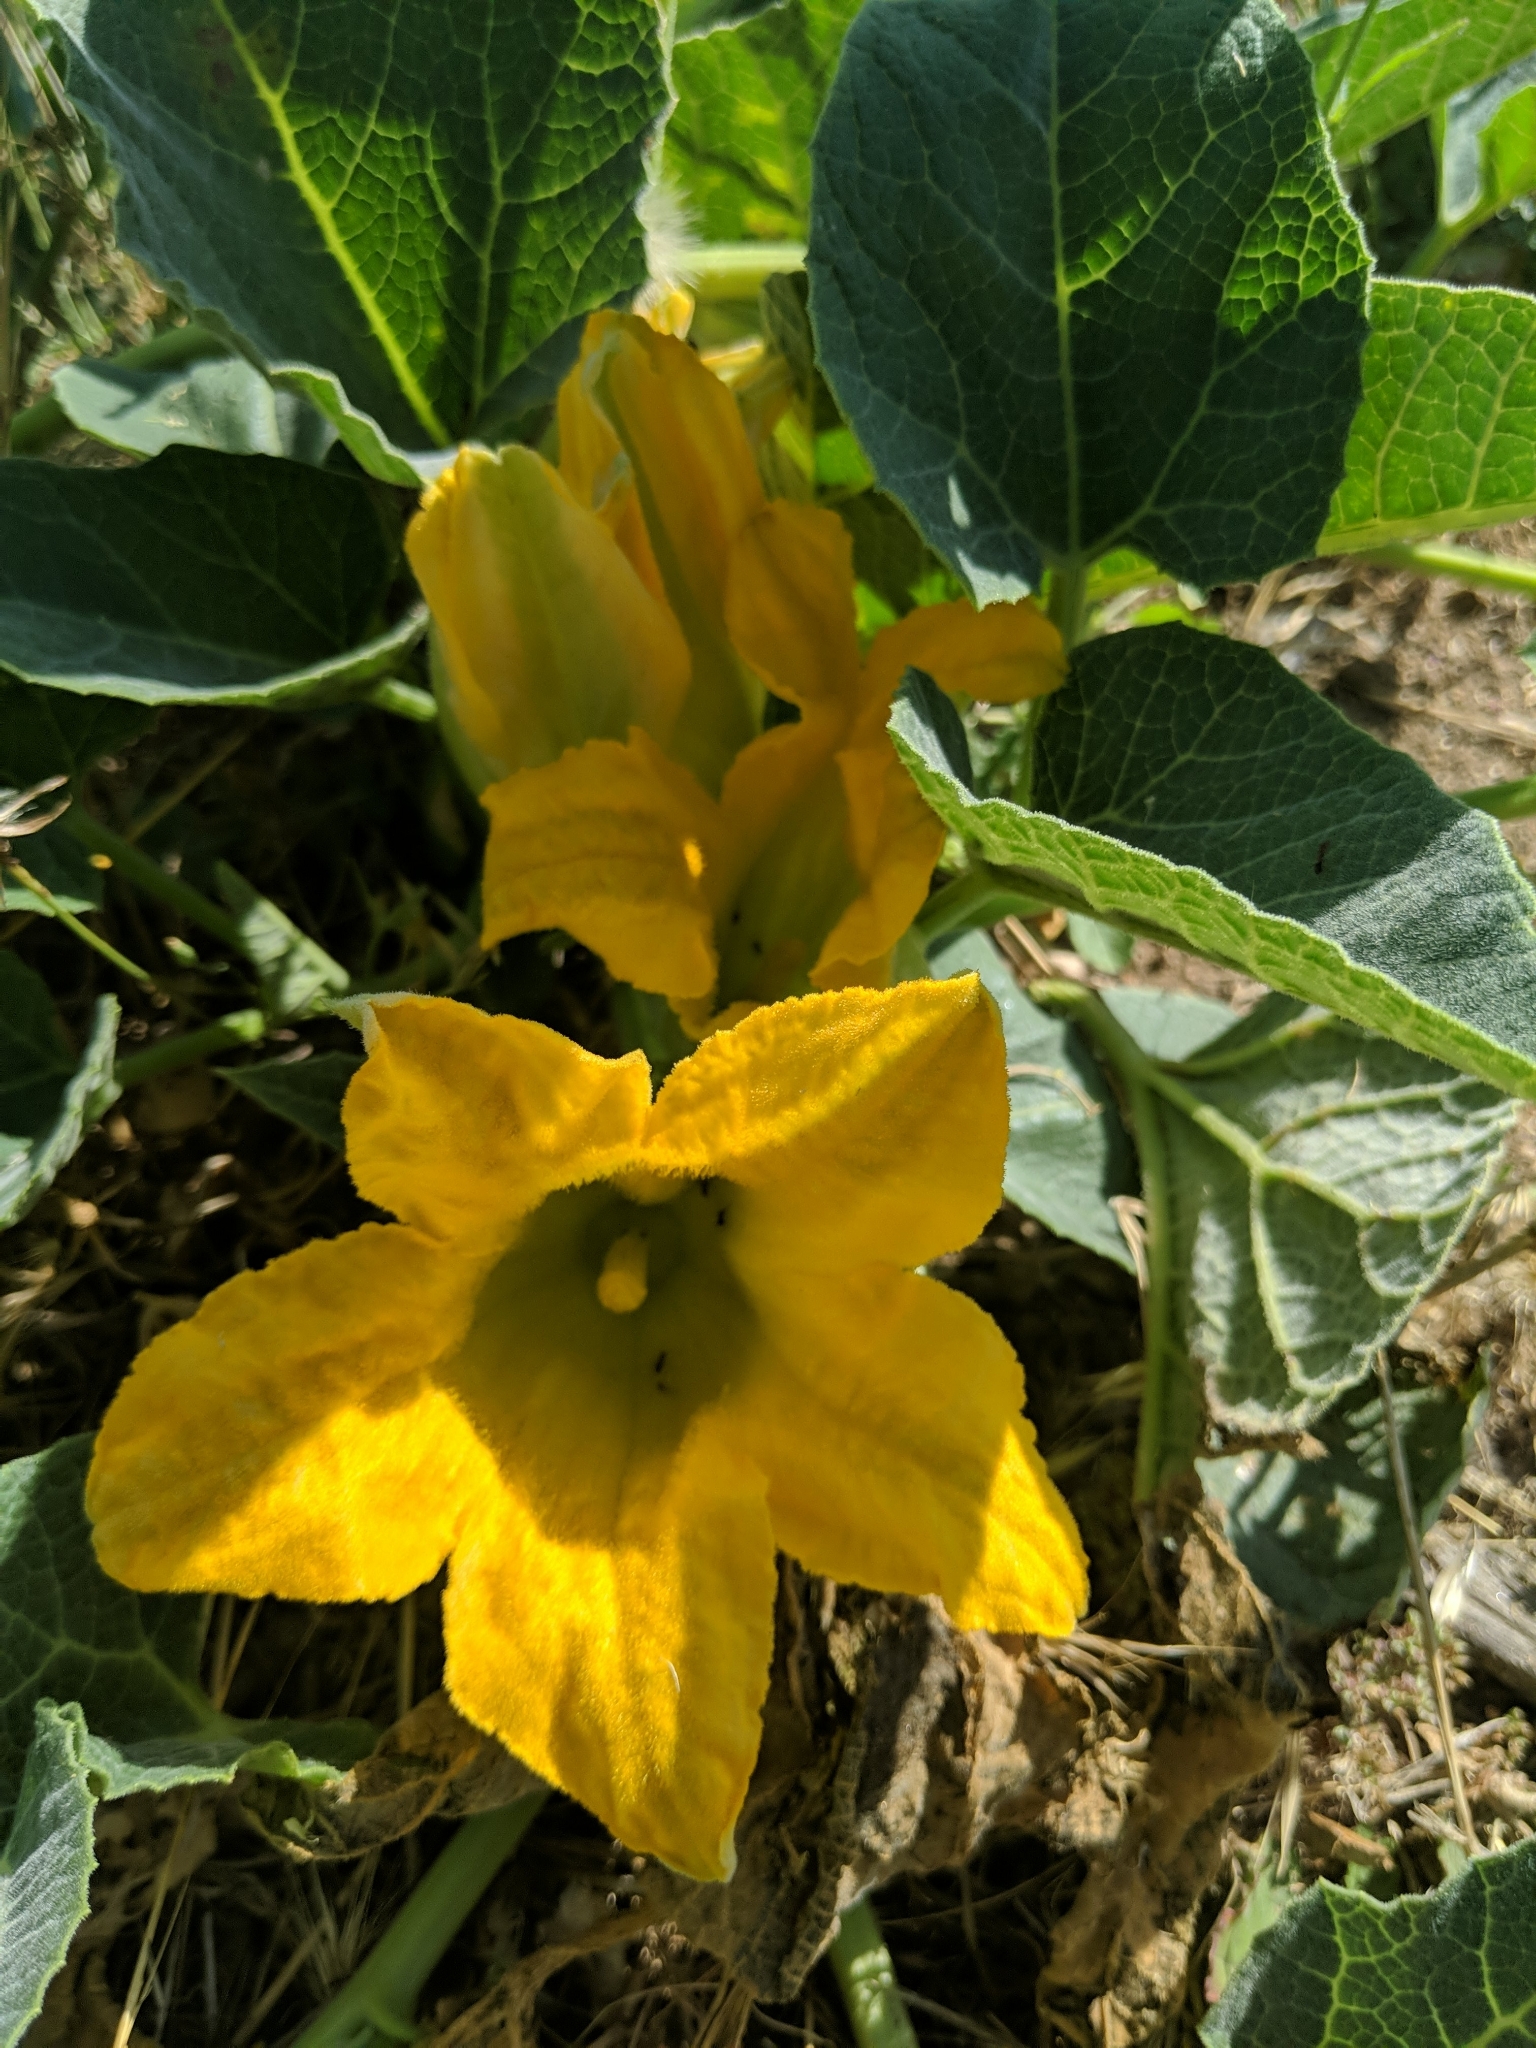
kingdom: Plantae
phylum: Tracheophyta
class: Magnoliopsida
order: Cucurbitales
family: Cucurbitaceae
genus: Cucurbita
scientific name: Cucurbita foetidissima
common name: Buffalo gourd
